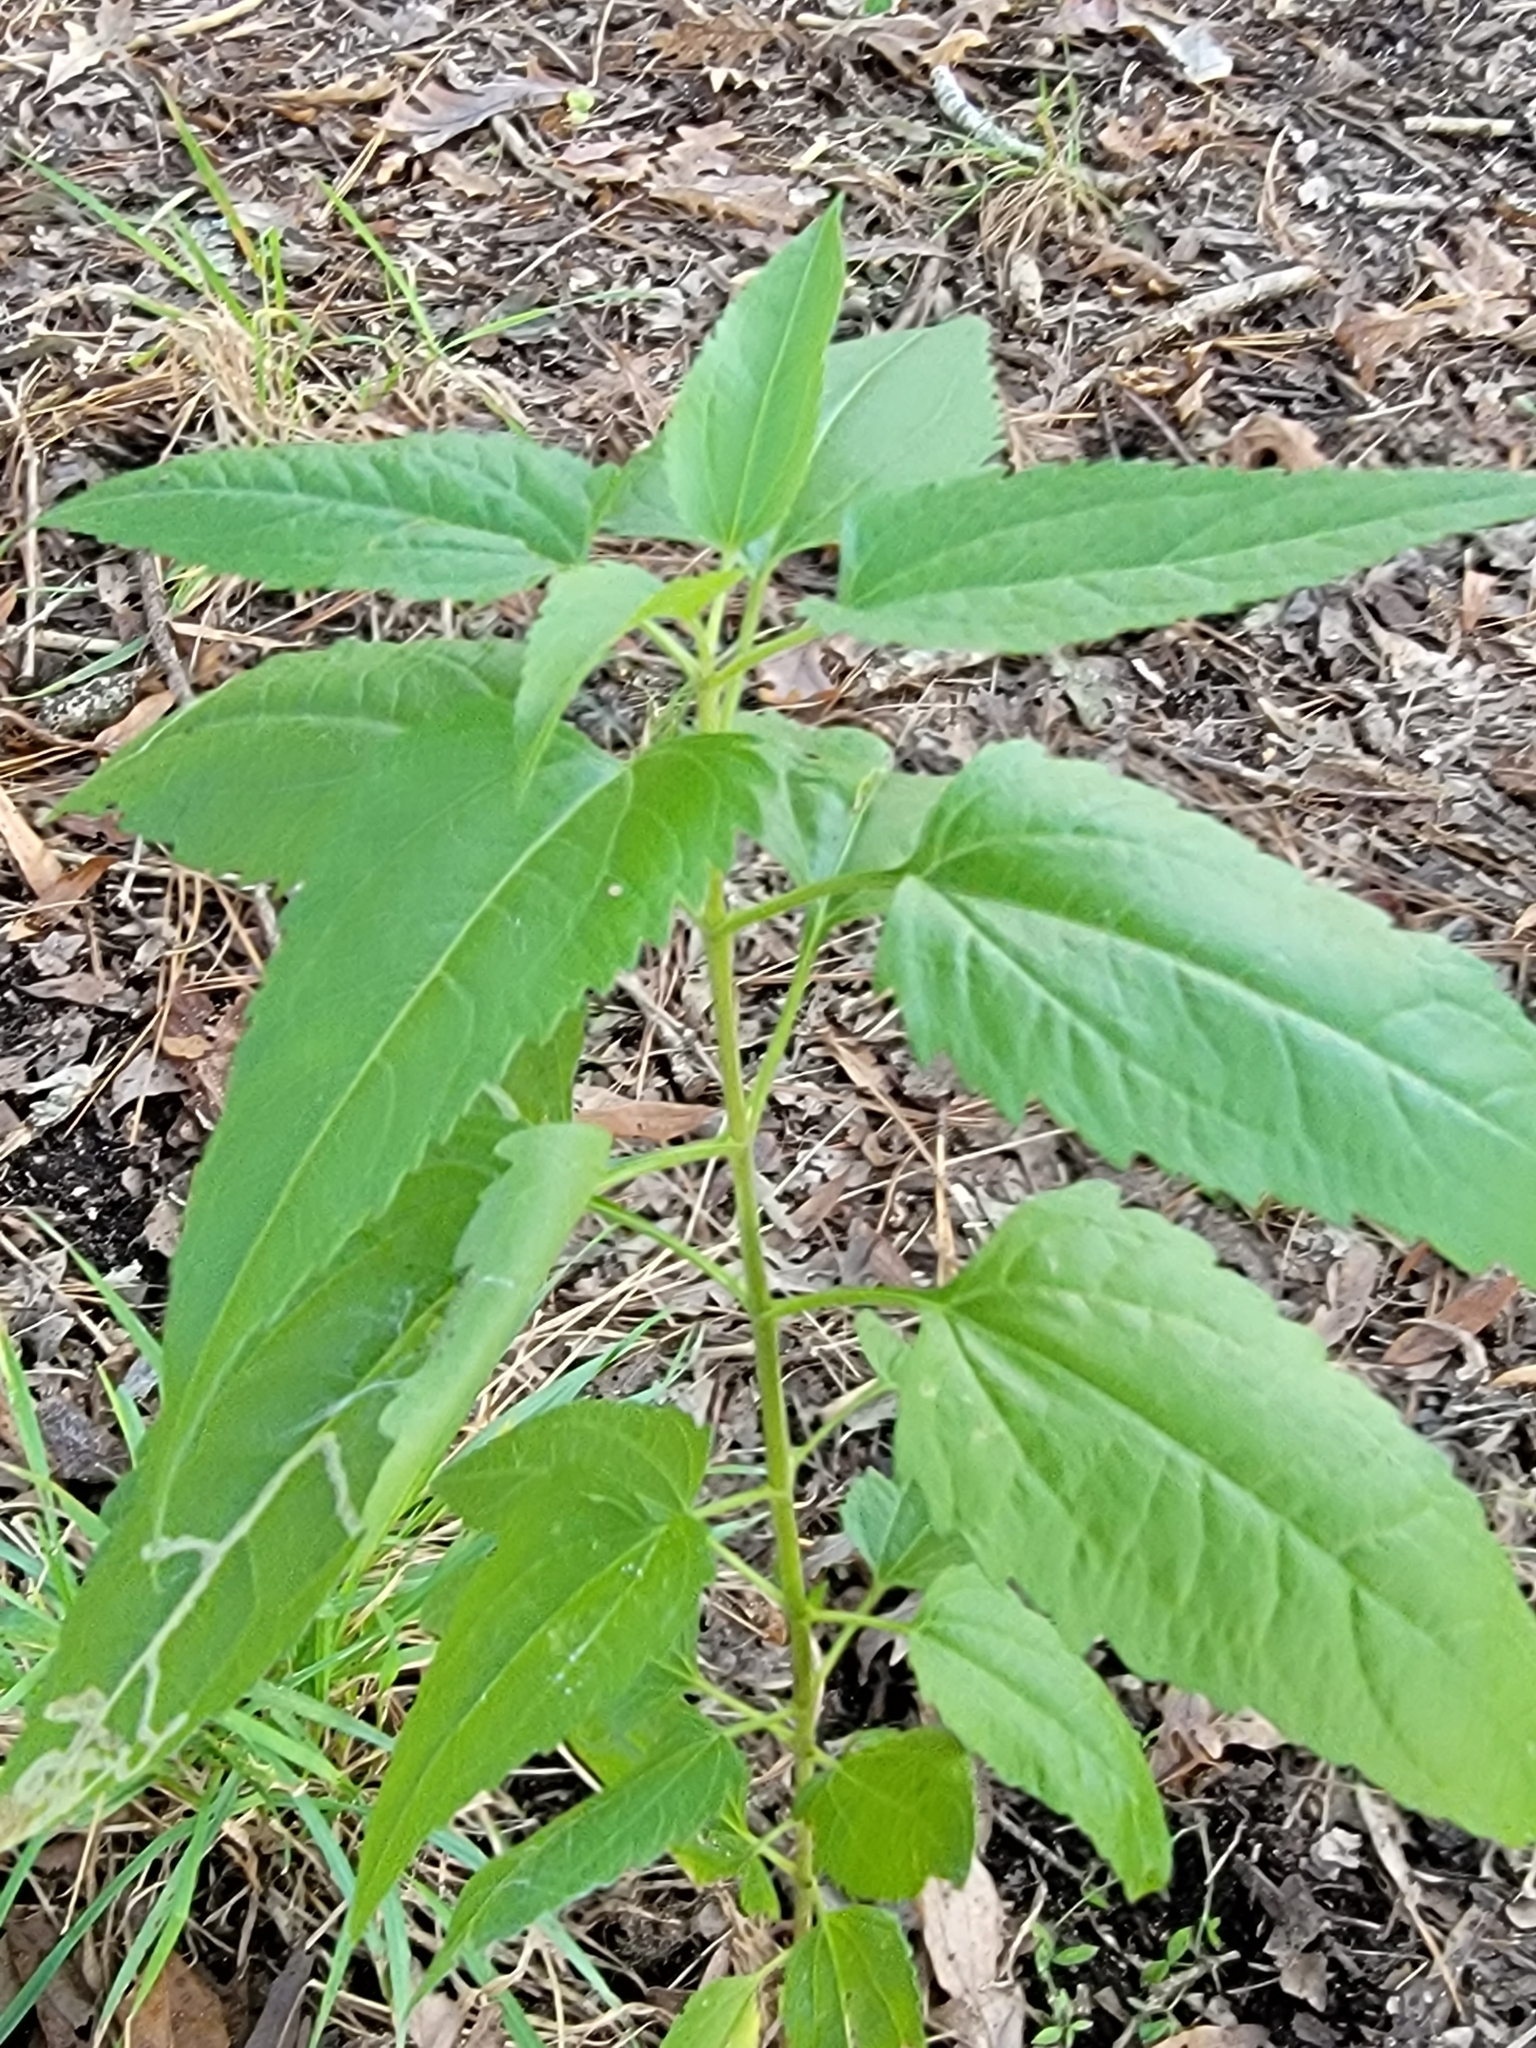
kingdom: Plantae
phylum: Tracheophyta
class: Magnoliopsida
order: Asterales
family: Asteraceae
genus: Eupatorium
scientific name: Eupatorium serotinum
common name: Late boneset
